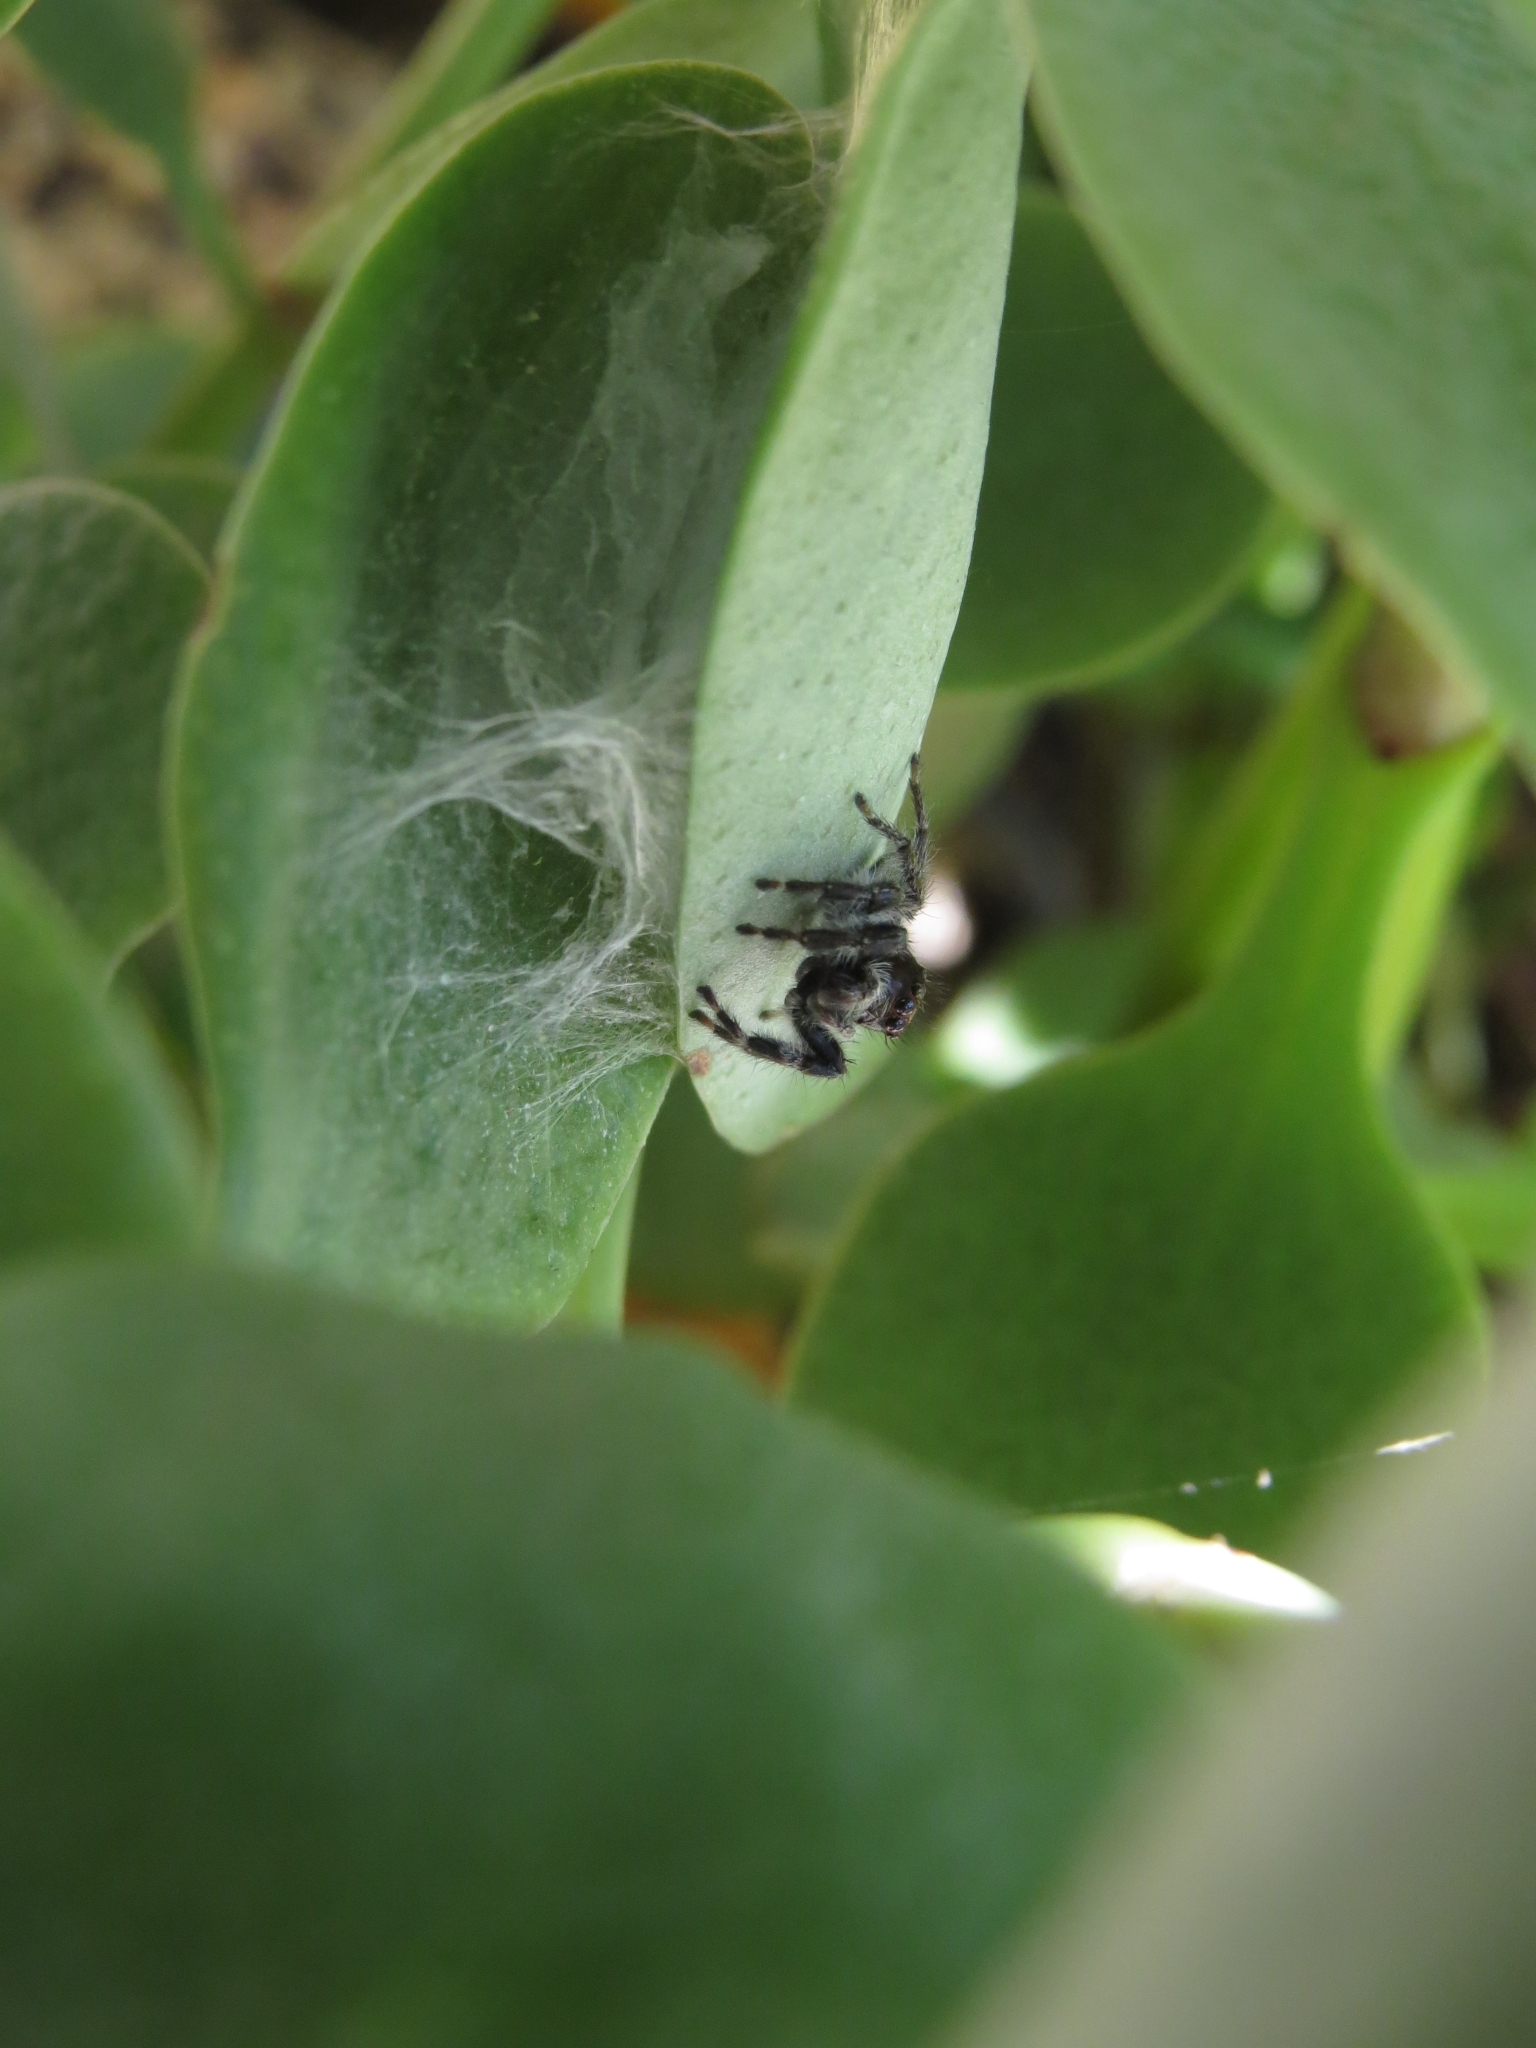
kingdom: Animalia
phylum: Arthropoda
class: Arachnida
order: Araneae
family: Salticidae
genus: Megafreya
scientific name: Megafreya sutrix
